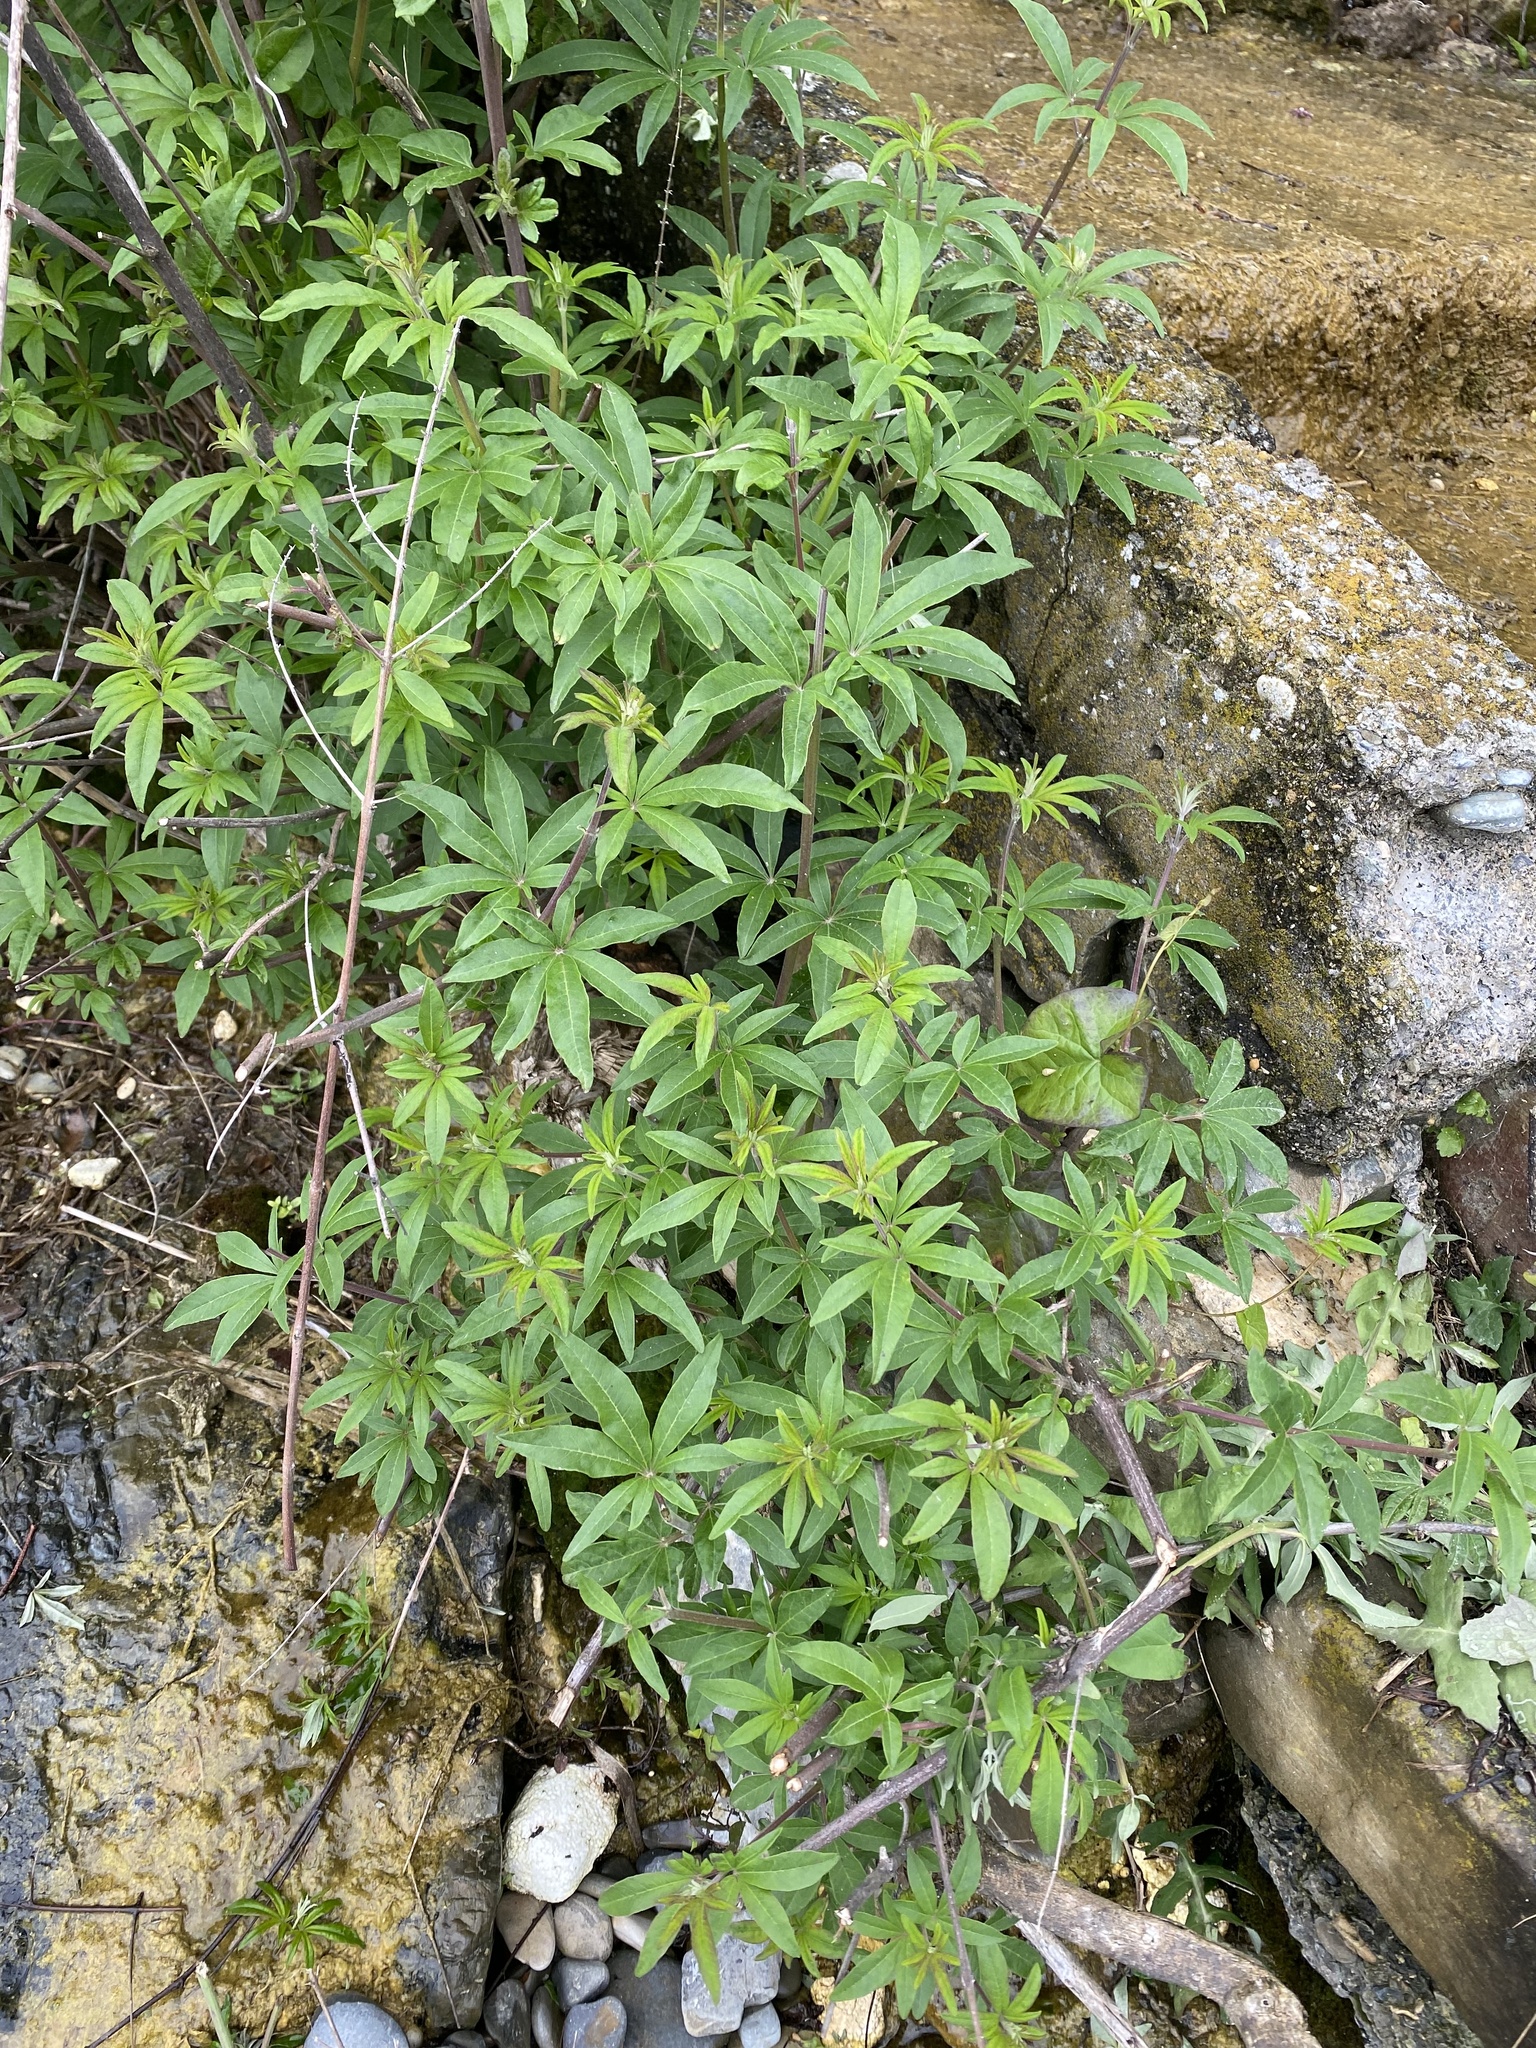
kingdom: Plantae
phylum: Tracheophyta
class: Magnoliopsida
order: Lamiales
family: Lamiaceae
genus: Vitex
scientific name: Vitex agnus-castus
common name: Chasteberry
